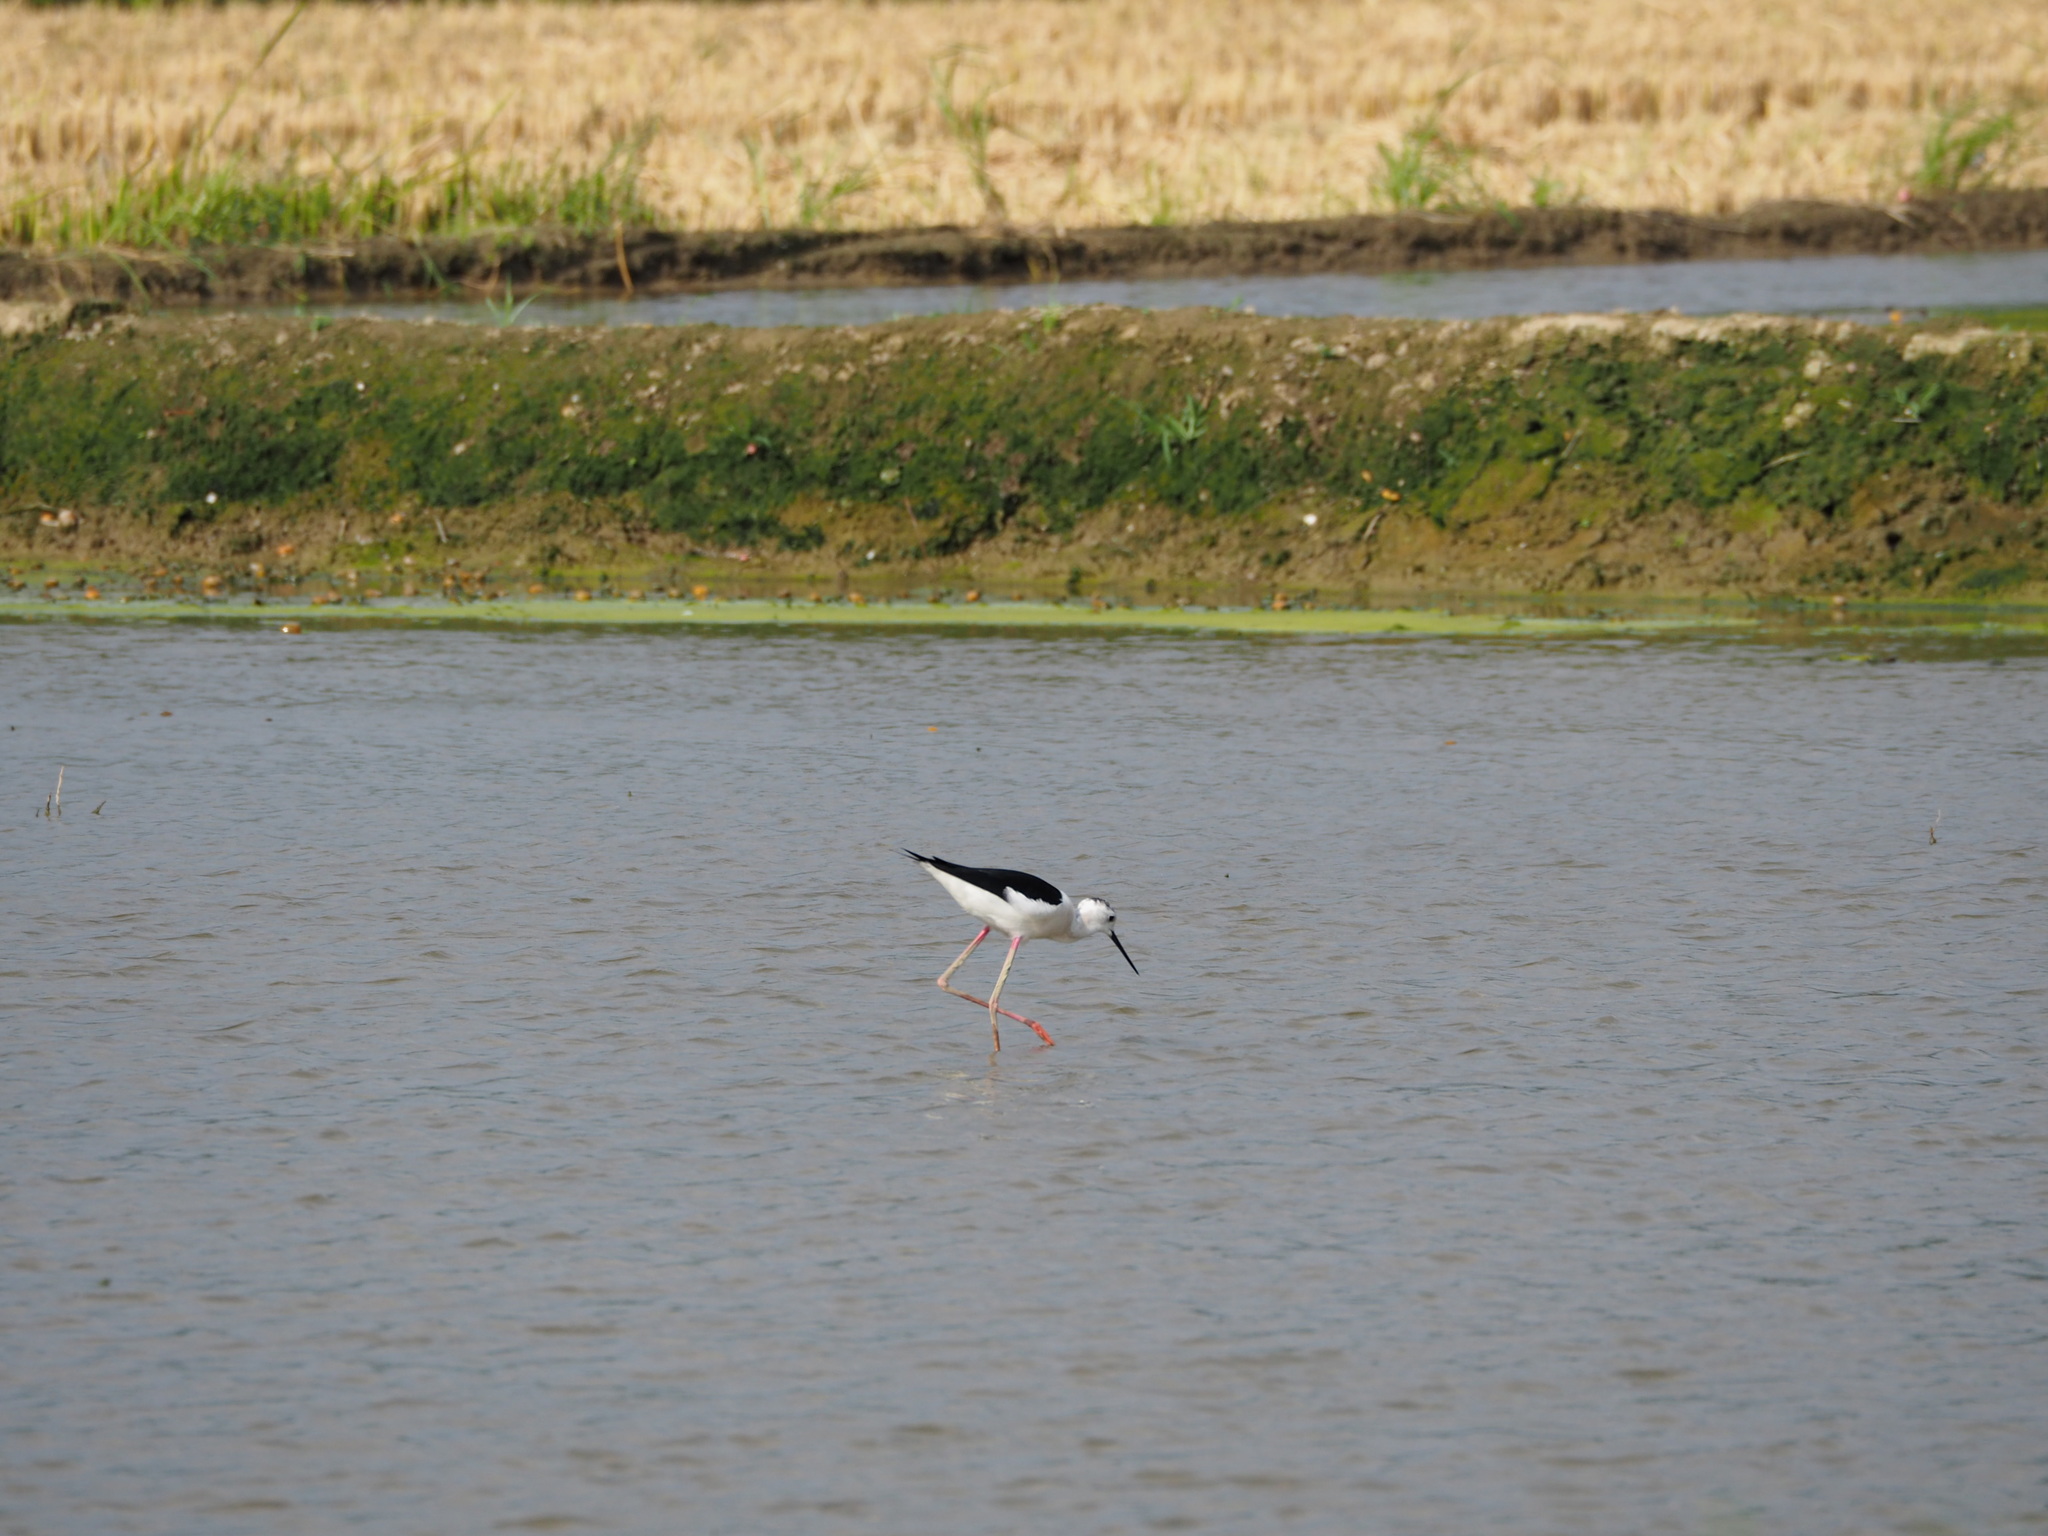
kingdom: Animalia
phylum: Chordata
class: Aves
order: Charadriiformes
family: Recurvirostridae
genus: Himantopus
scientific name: Himantopus himantopus
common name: Black-winged stilt
